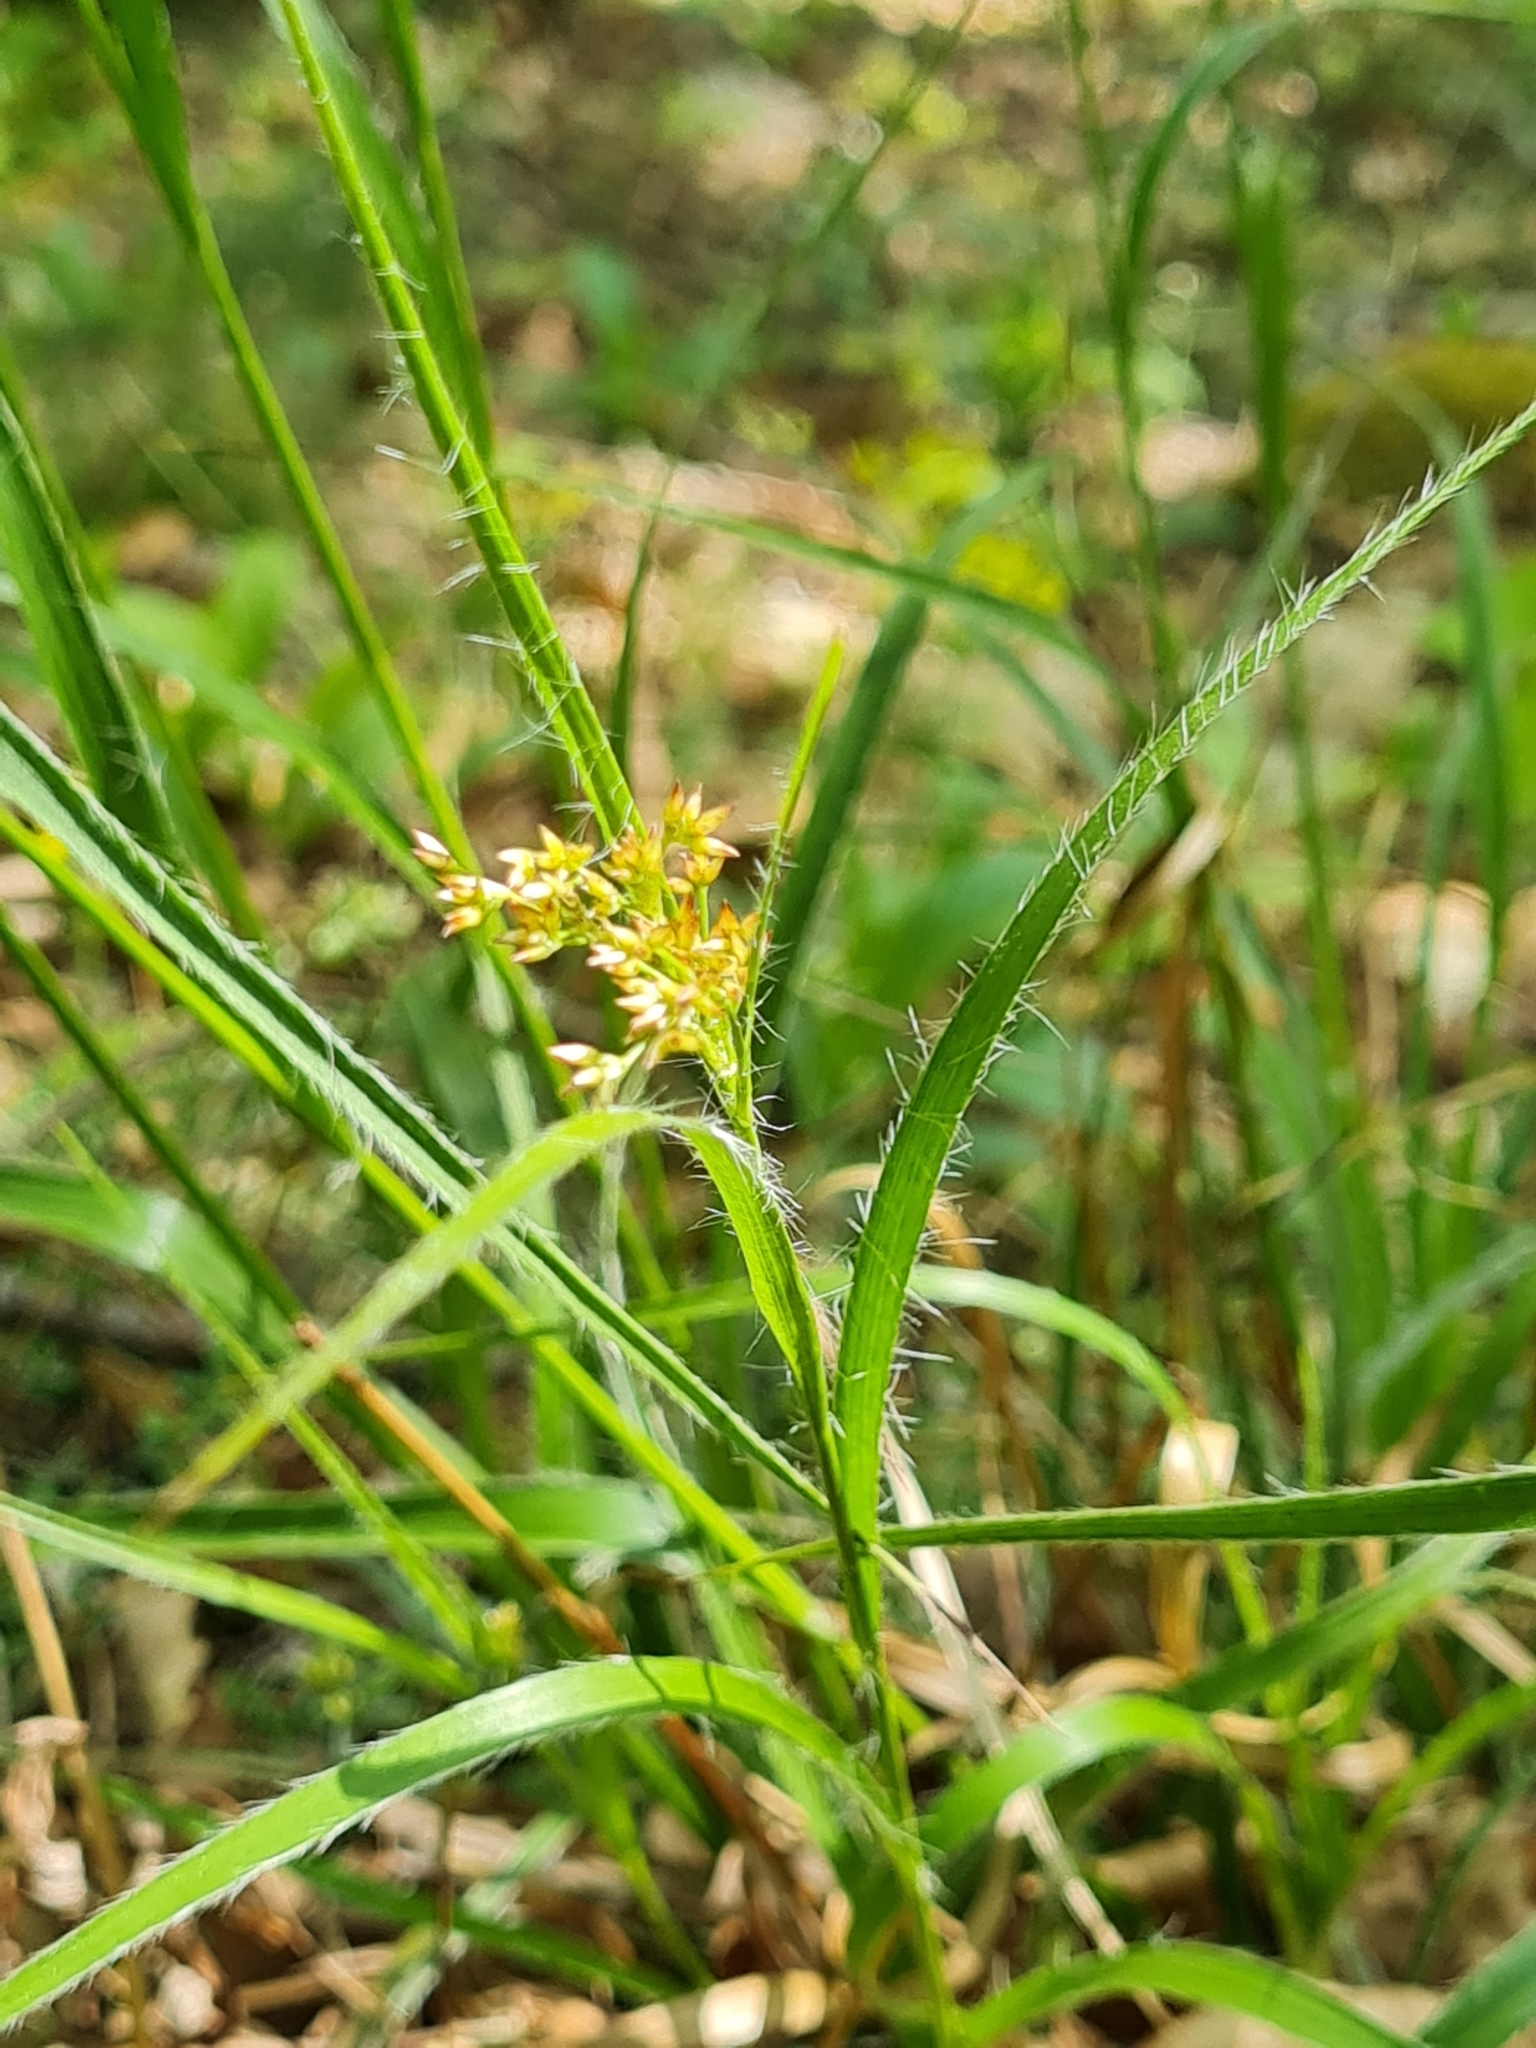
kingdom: Plantae
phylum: Tracheophyta
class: Liliopsida
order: Poales
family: Juncaceae
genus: Luzula
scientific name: Luzula luzuloides
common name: White wood-rush
